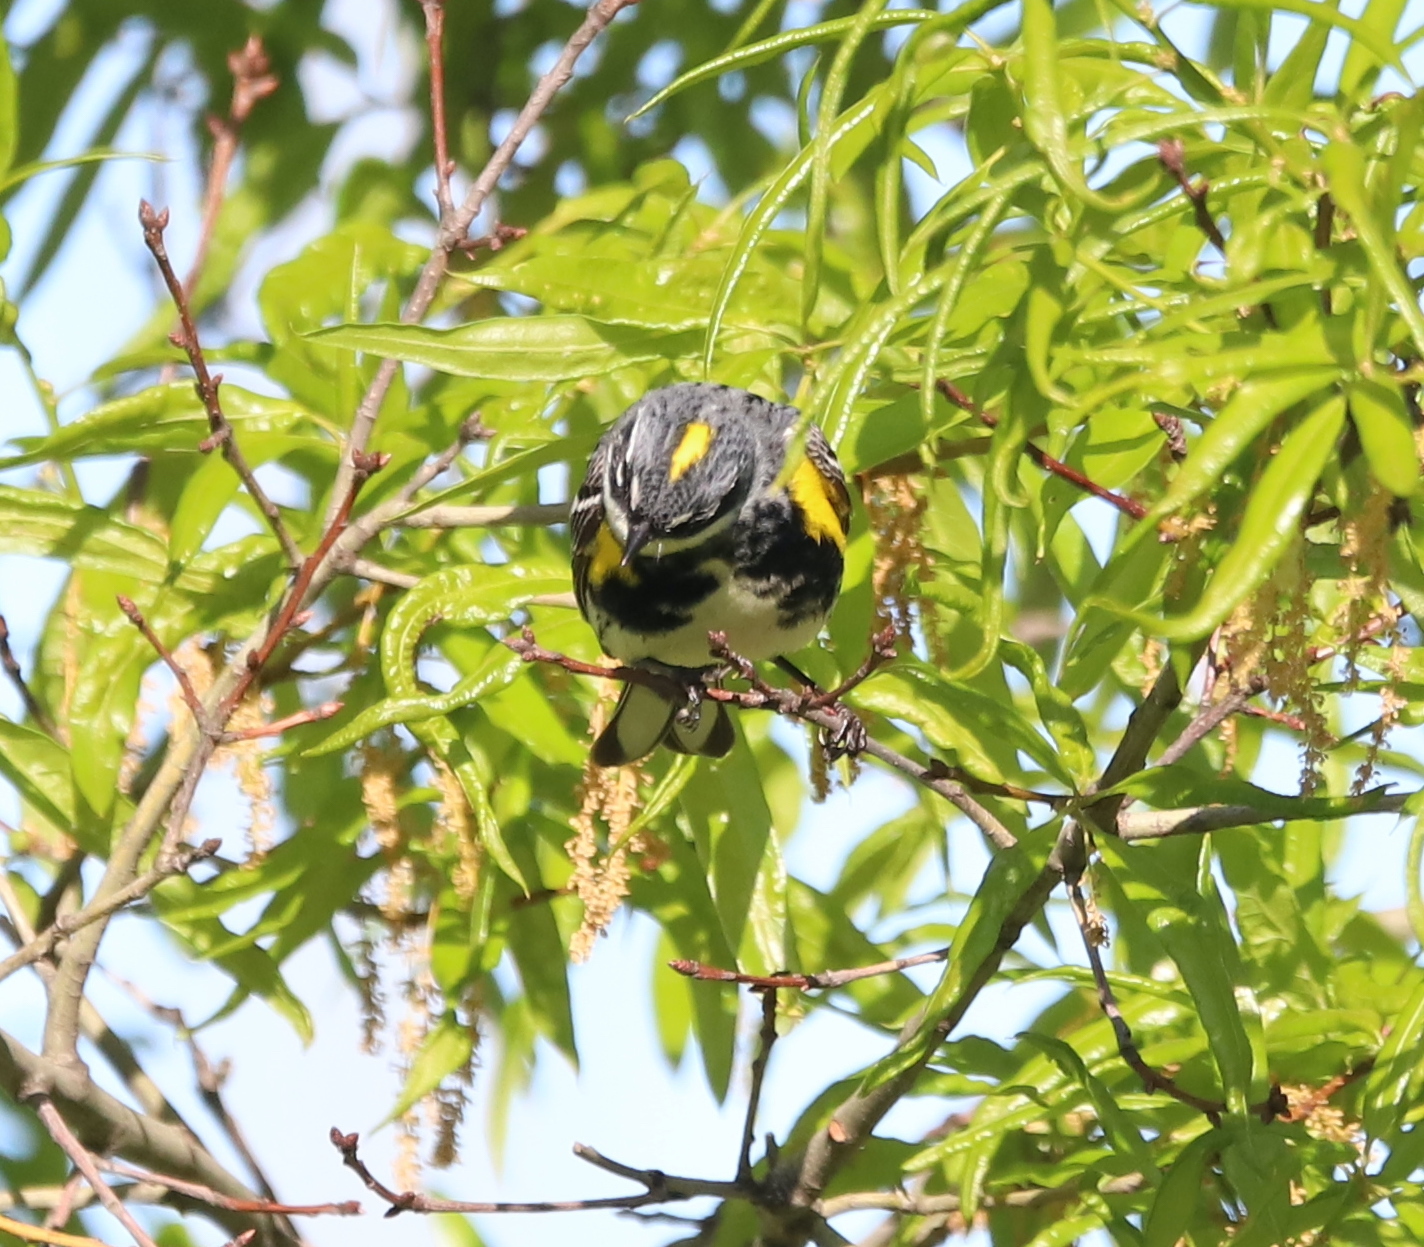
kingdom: Animalia
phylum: Chordata
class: Aves
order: Passeriformes
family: Parulidae
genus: Setophaga
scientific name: Setophaga coronata
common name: Myrtle warbler
